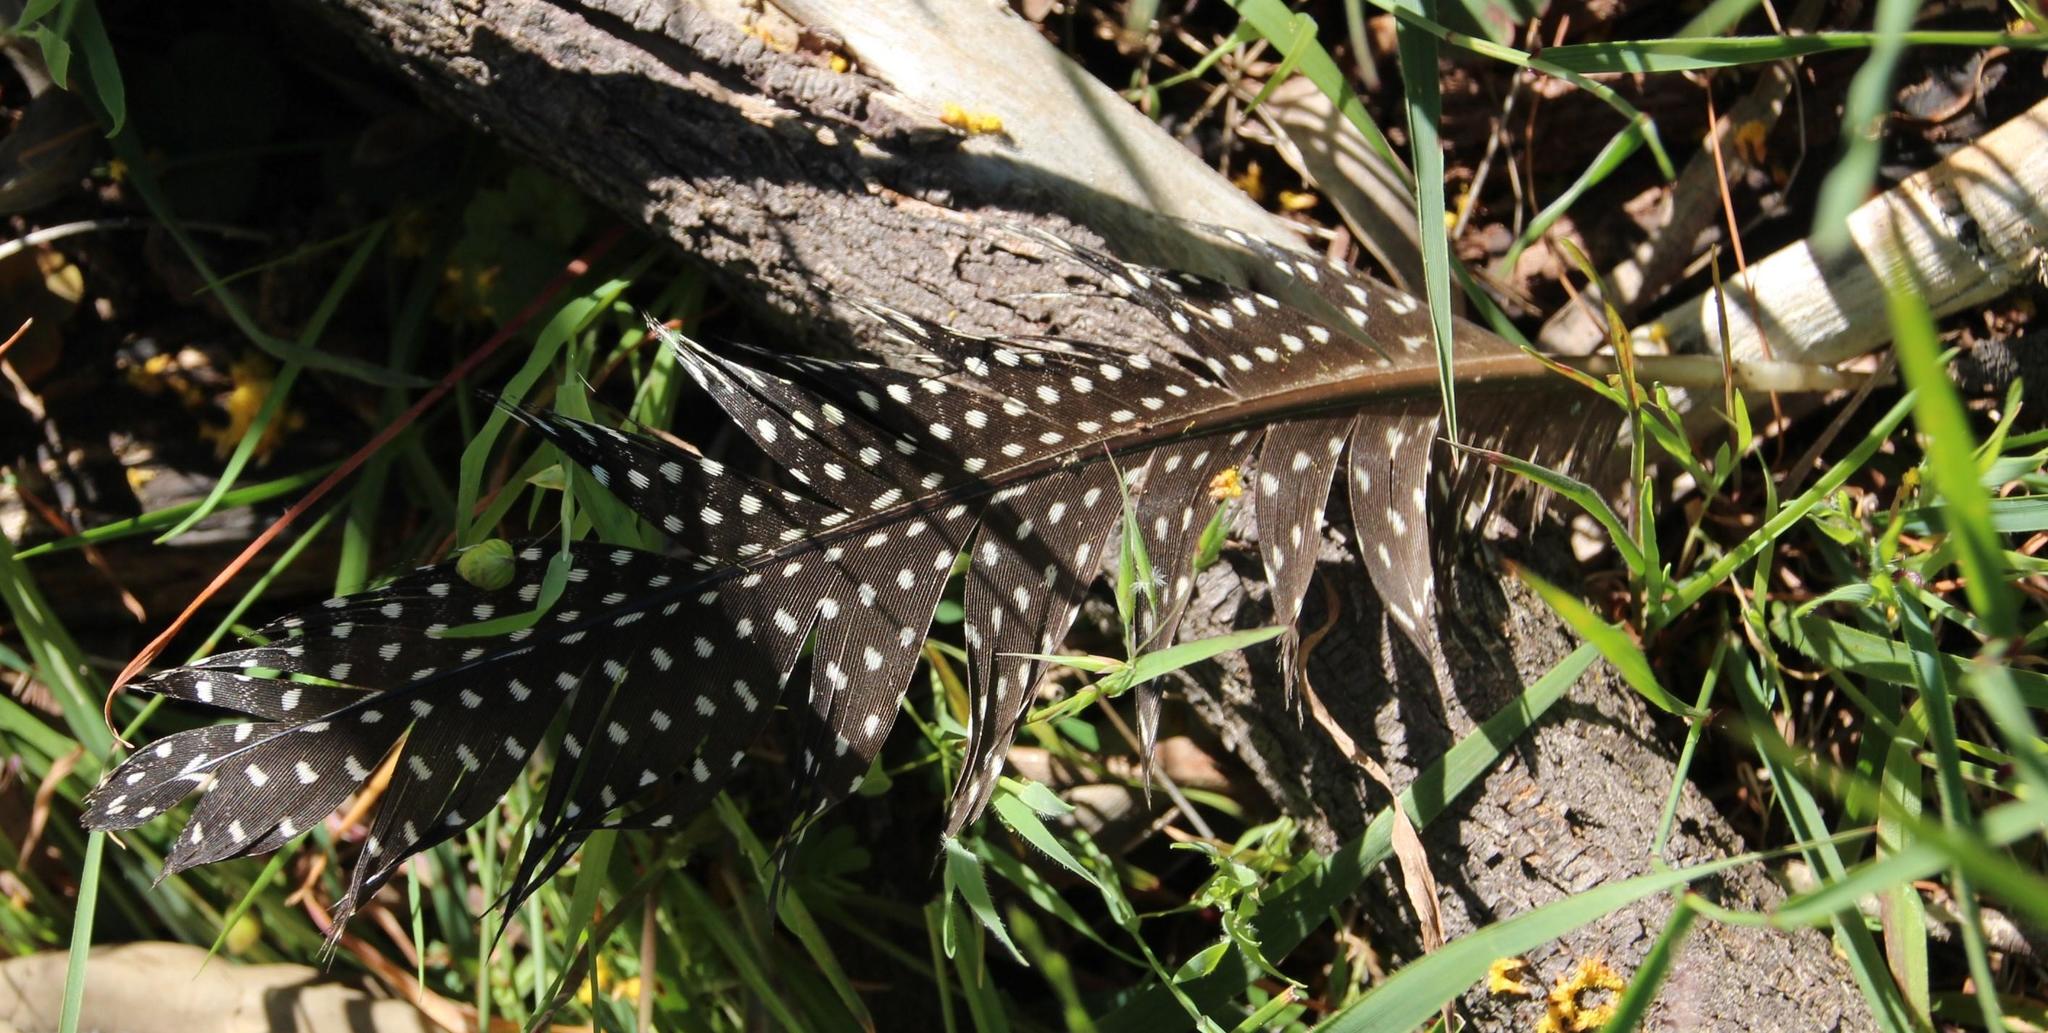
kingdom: Animalia
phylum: Chordata
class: Aves
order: Galliformes
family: Numididae
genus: Numida
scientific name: Numida meleagris
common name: Helmeted guineafowl
